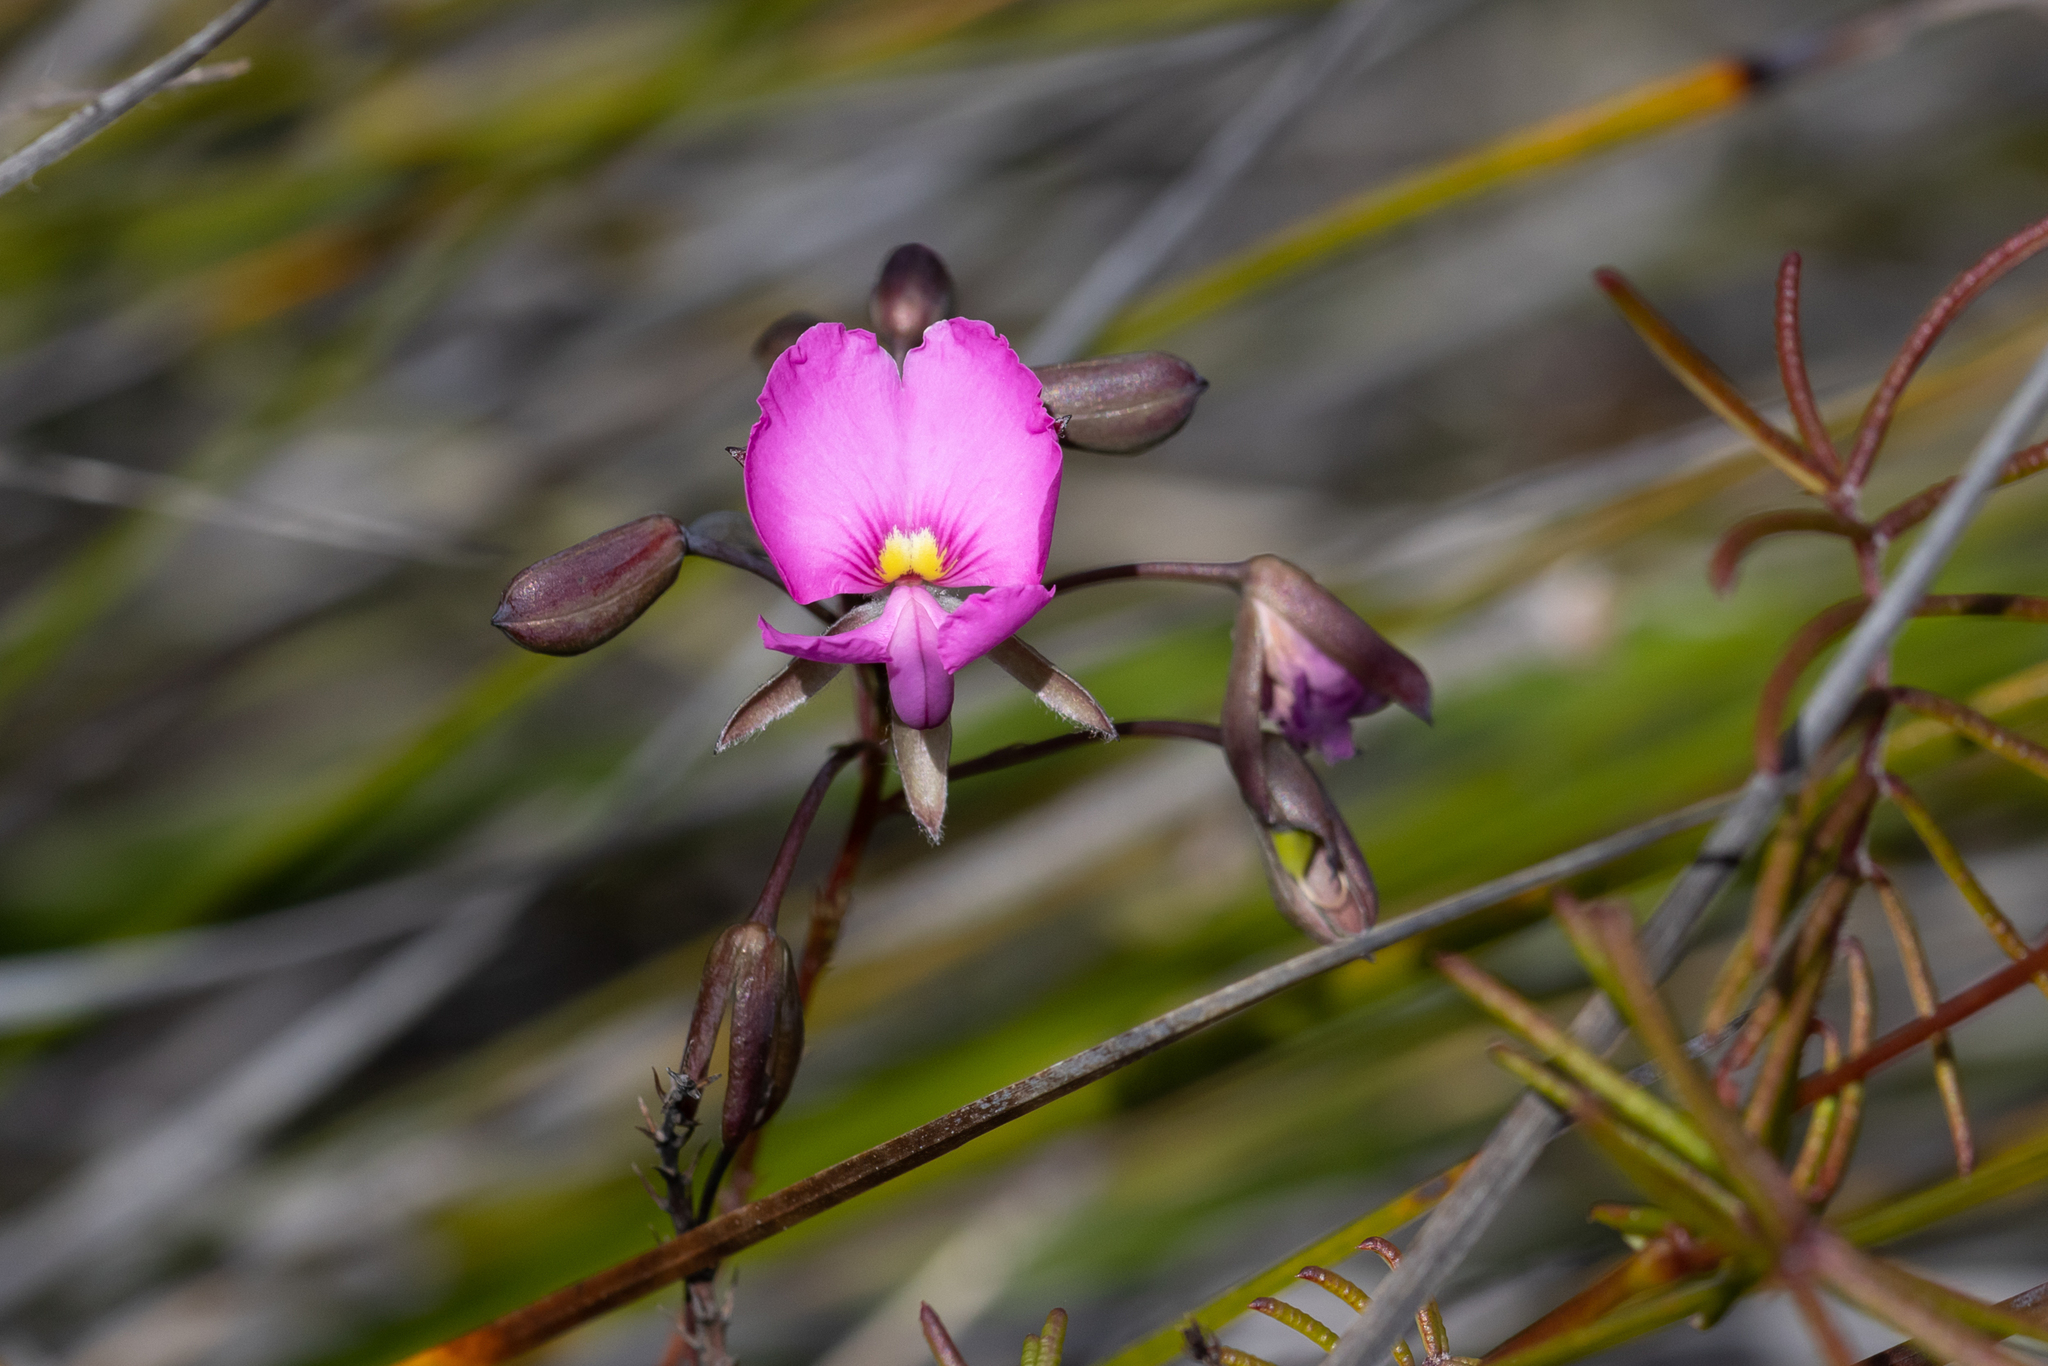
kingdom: Plantae
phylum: Tracheophyta
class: Magnoliopsida
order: Fabales
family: Fabaceae
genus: Gompholobium
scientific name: Gompholobium venustum
